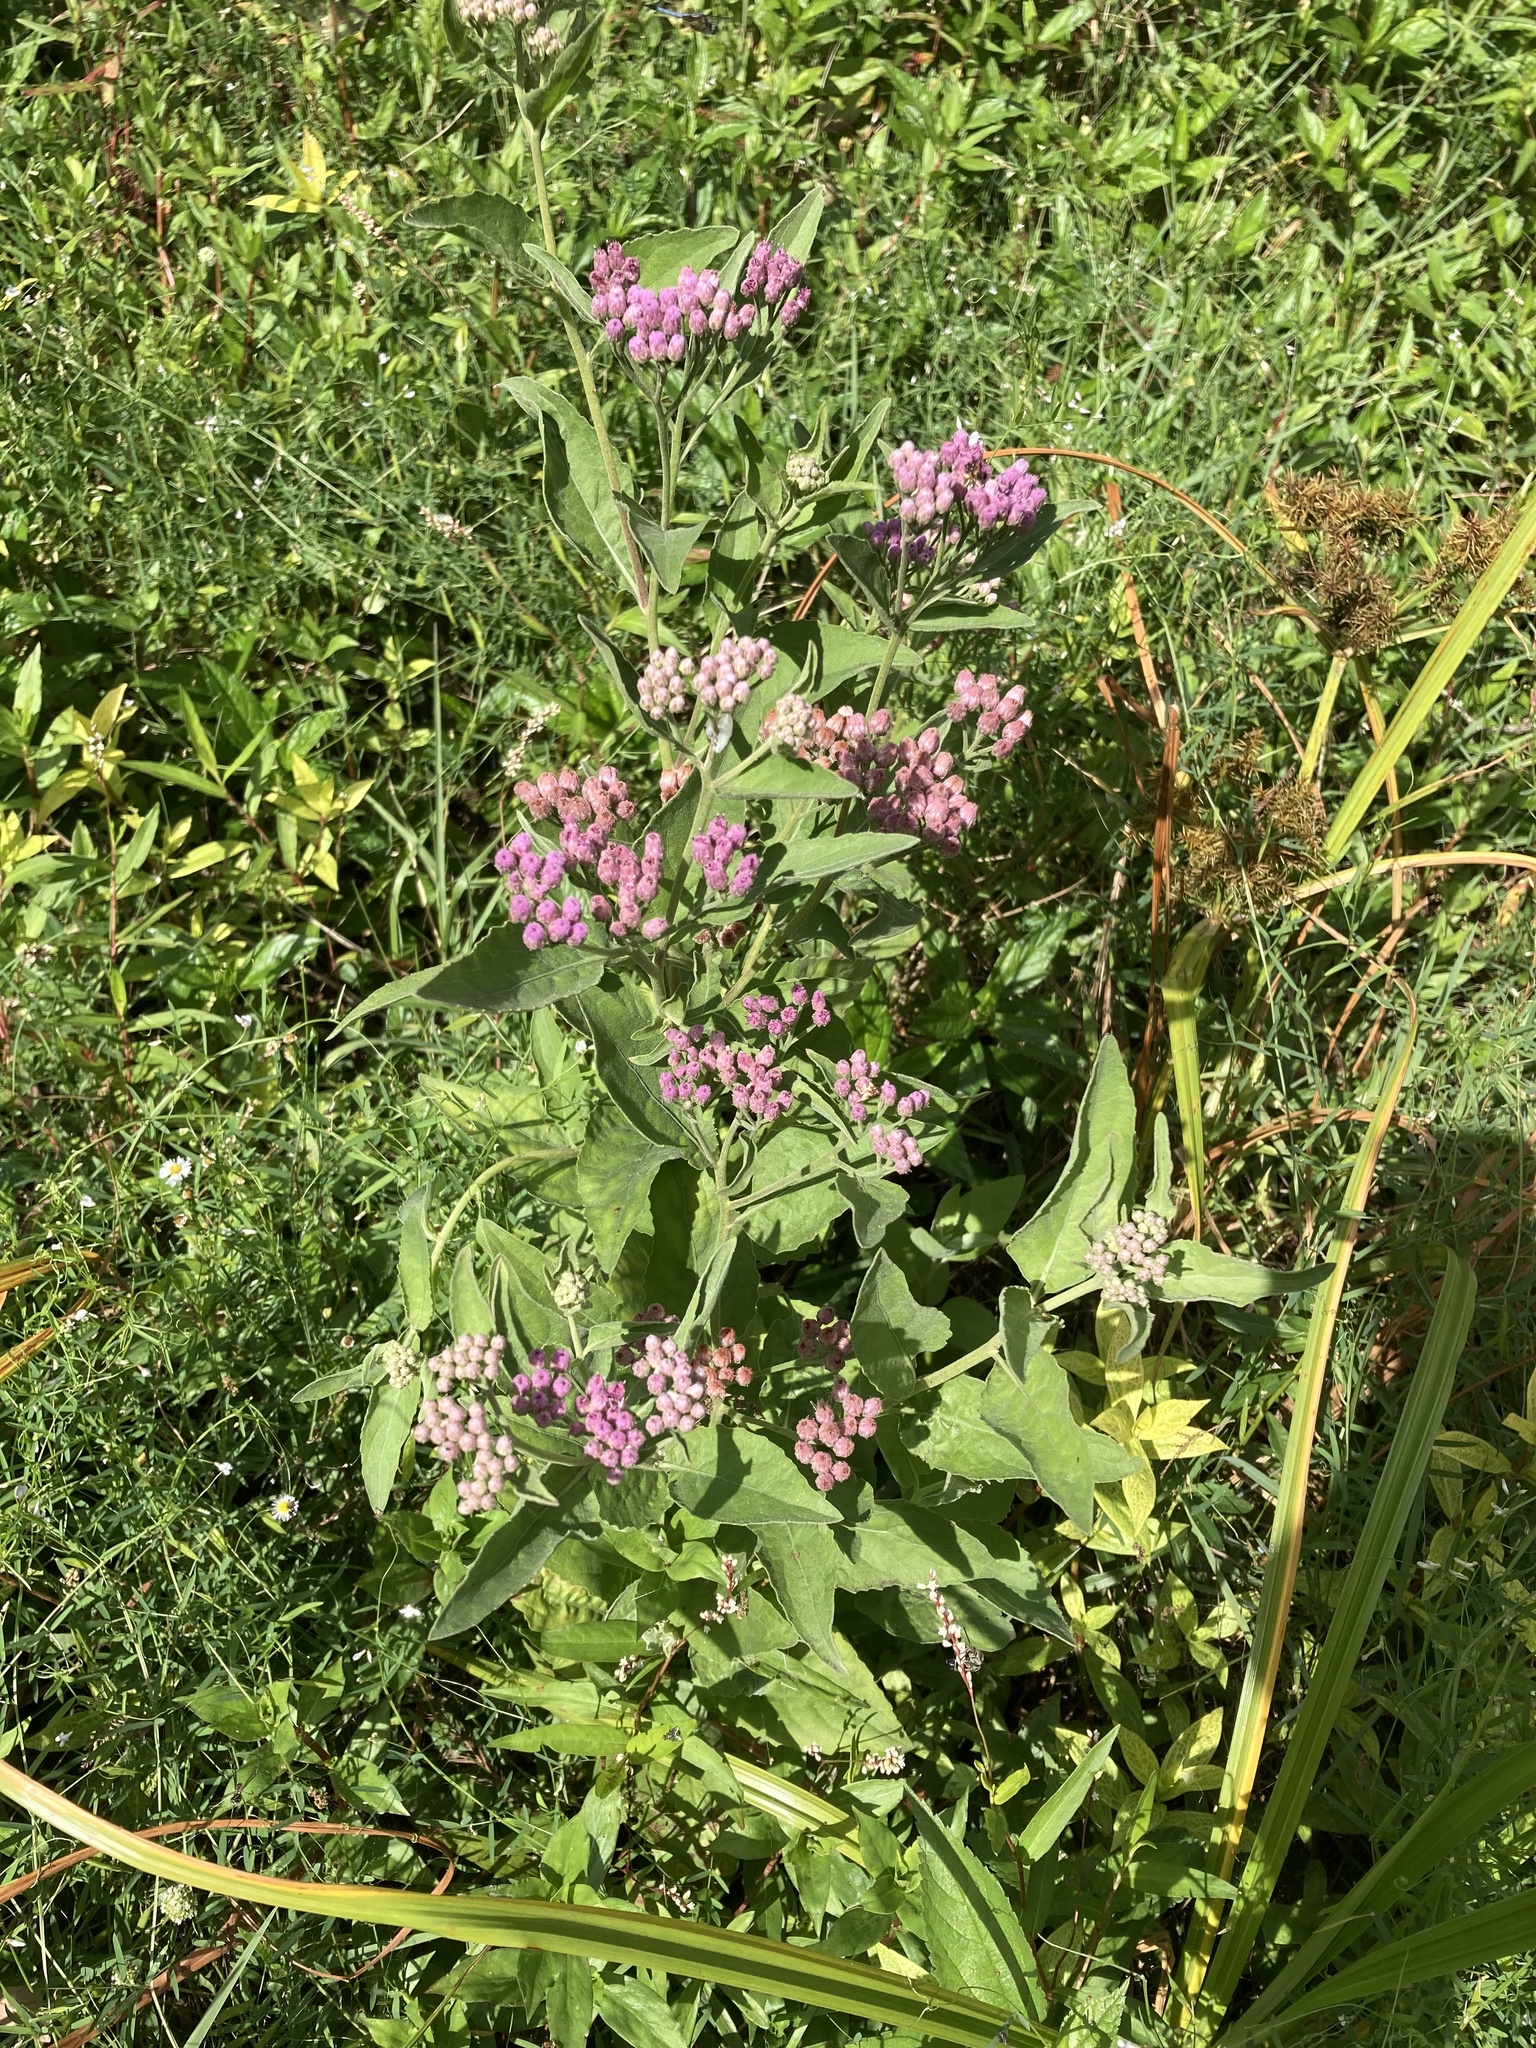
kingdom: Plantae
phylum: Tracheophyta
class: Magnoliopsida
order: Asterales
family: Asteraceae
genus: Pluchea
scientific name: Pluchea odorata
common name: Saltmarsh fleabane
